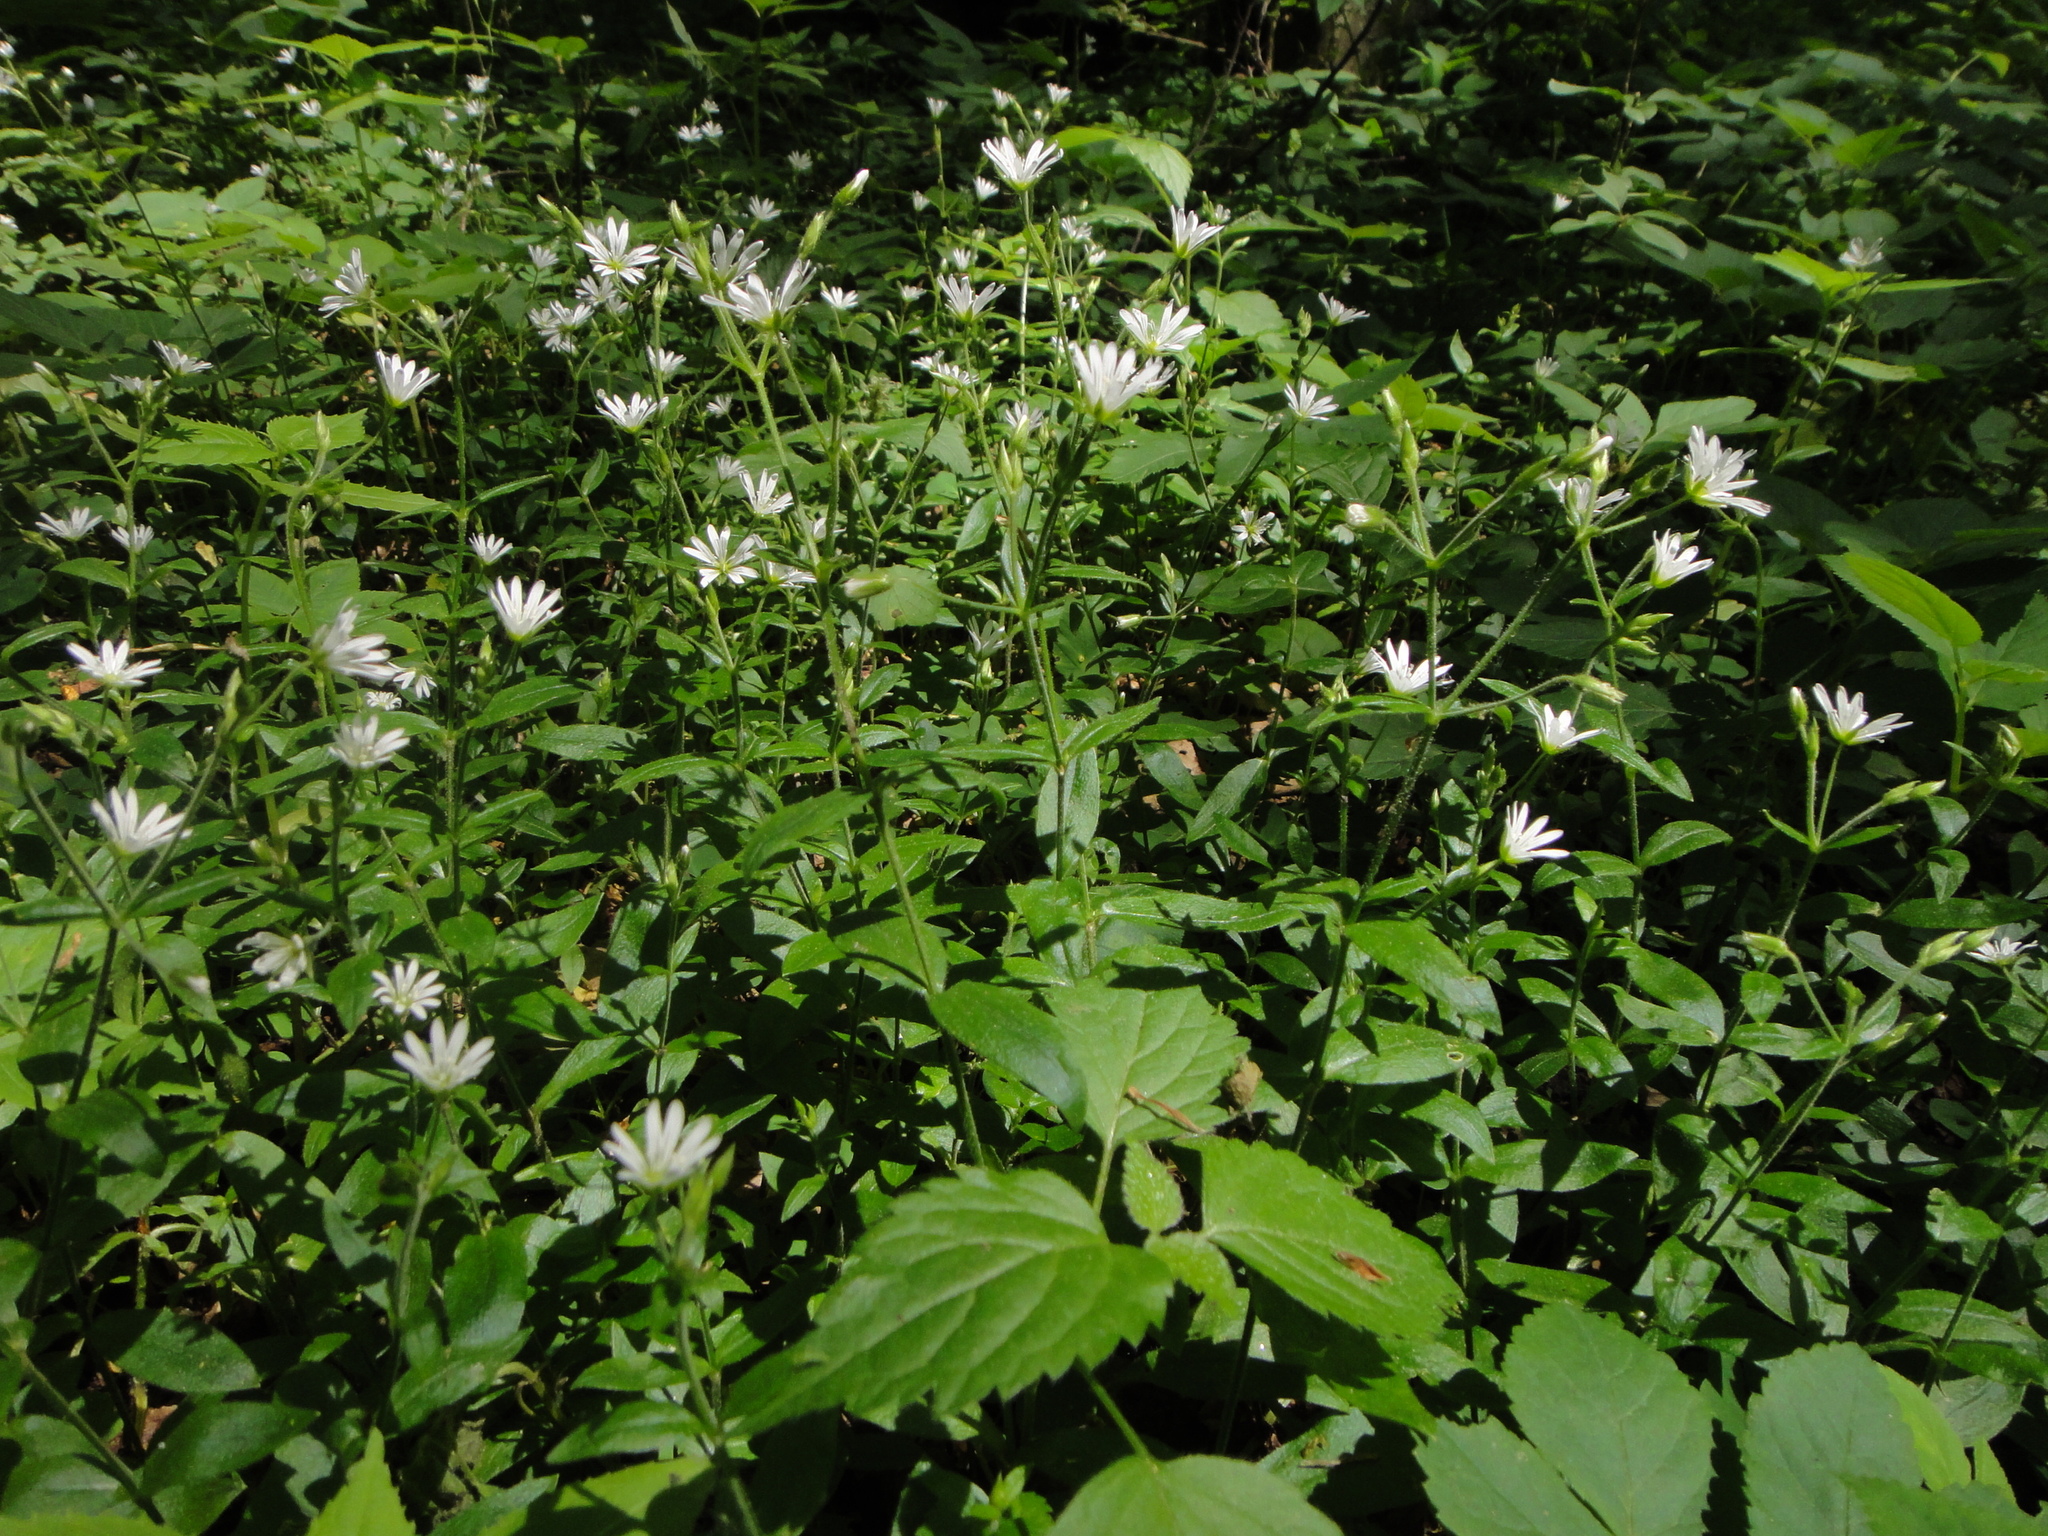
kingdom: Plantae
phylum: Tracheophyta
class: Magnoliopsida
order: Caryophyllales
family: Caryophyllaceae
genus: Cerastium
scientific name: Cerastium sylvaticum
